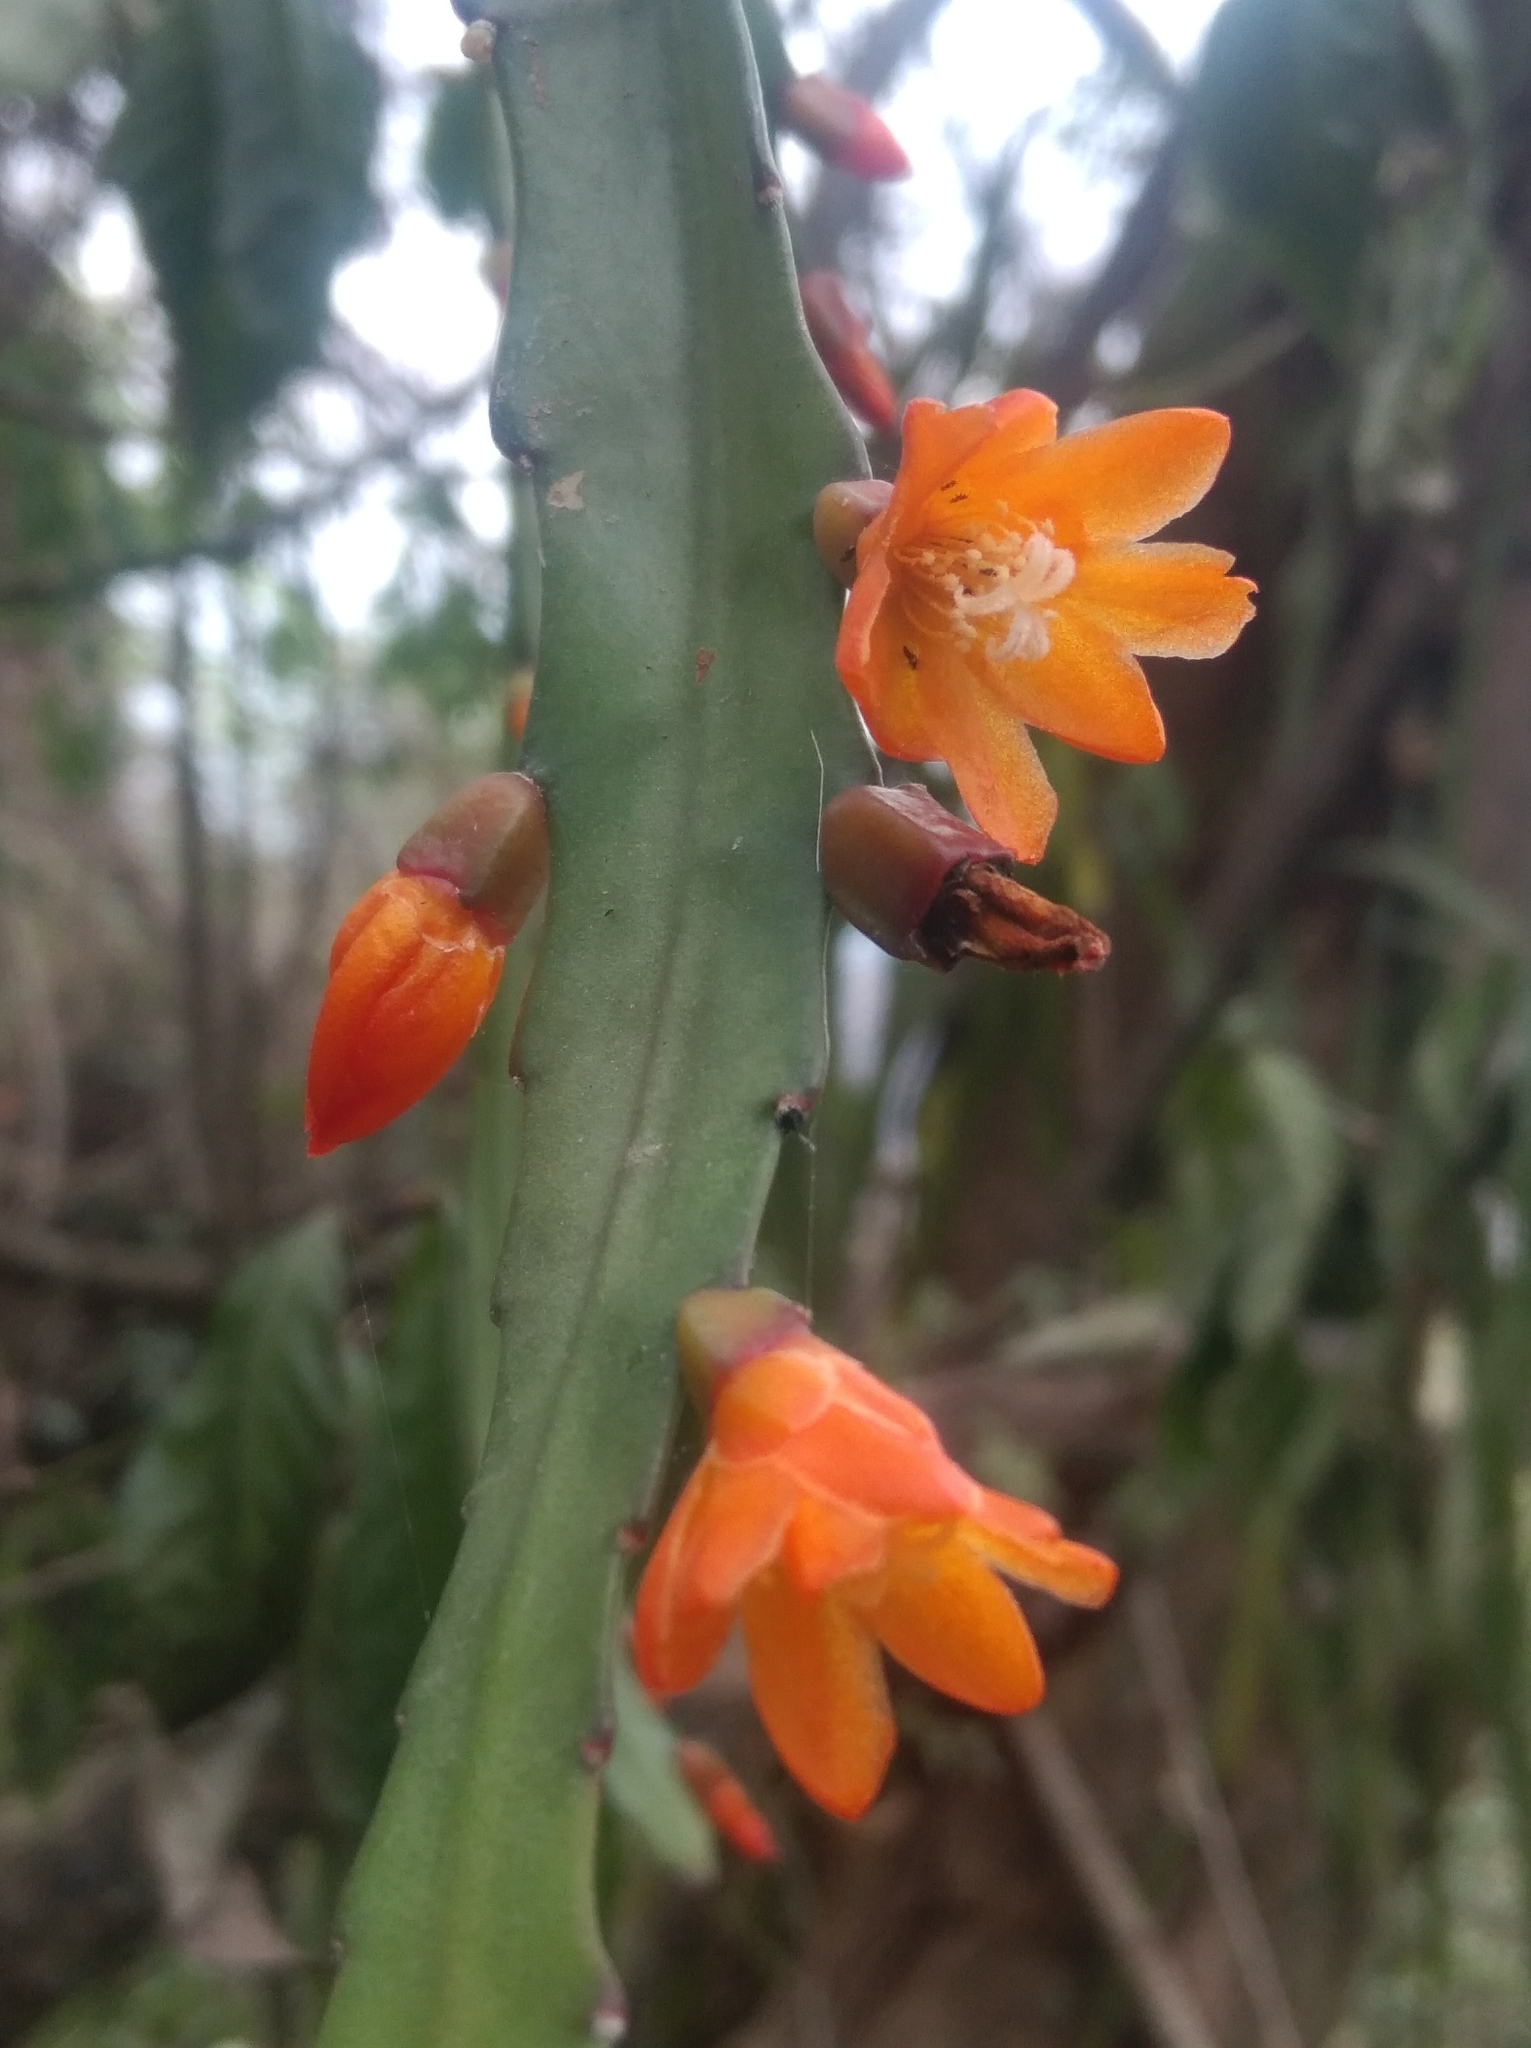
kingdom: Plantae
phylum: Tracheophyta
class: Magnoliopsida
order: Caryophyllales
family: Cactaceae
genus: Pfeiffera
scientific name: Pfeiffera monacantha
